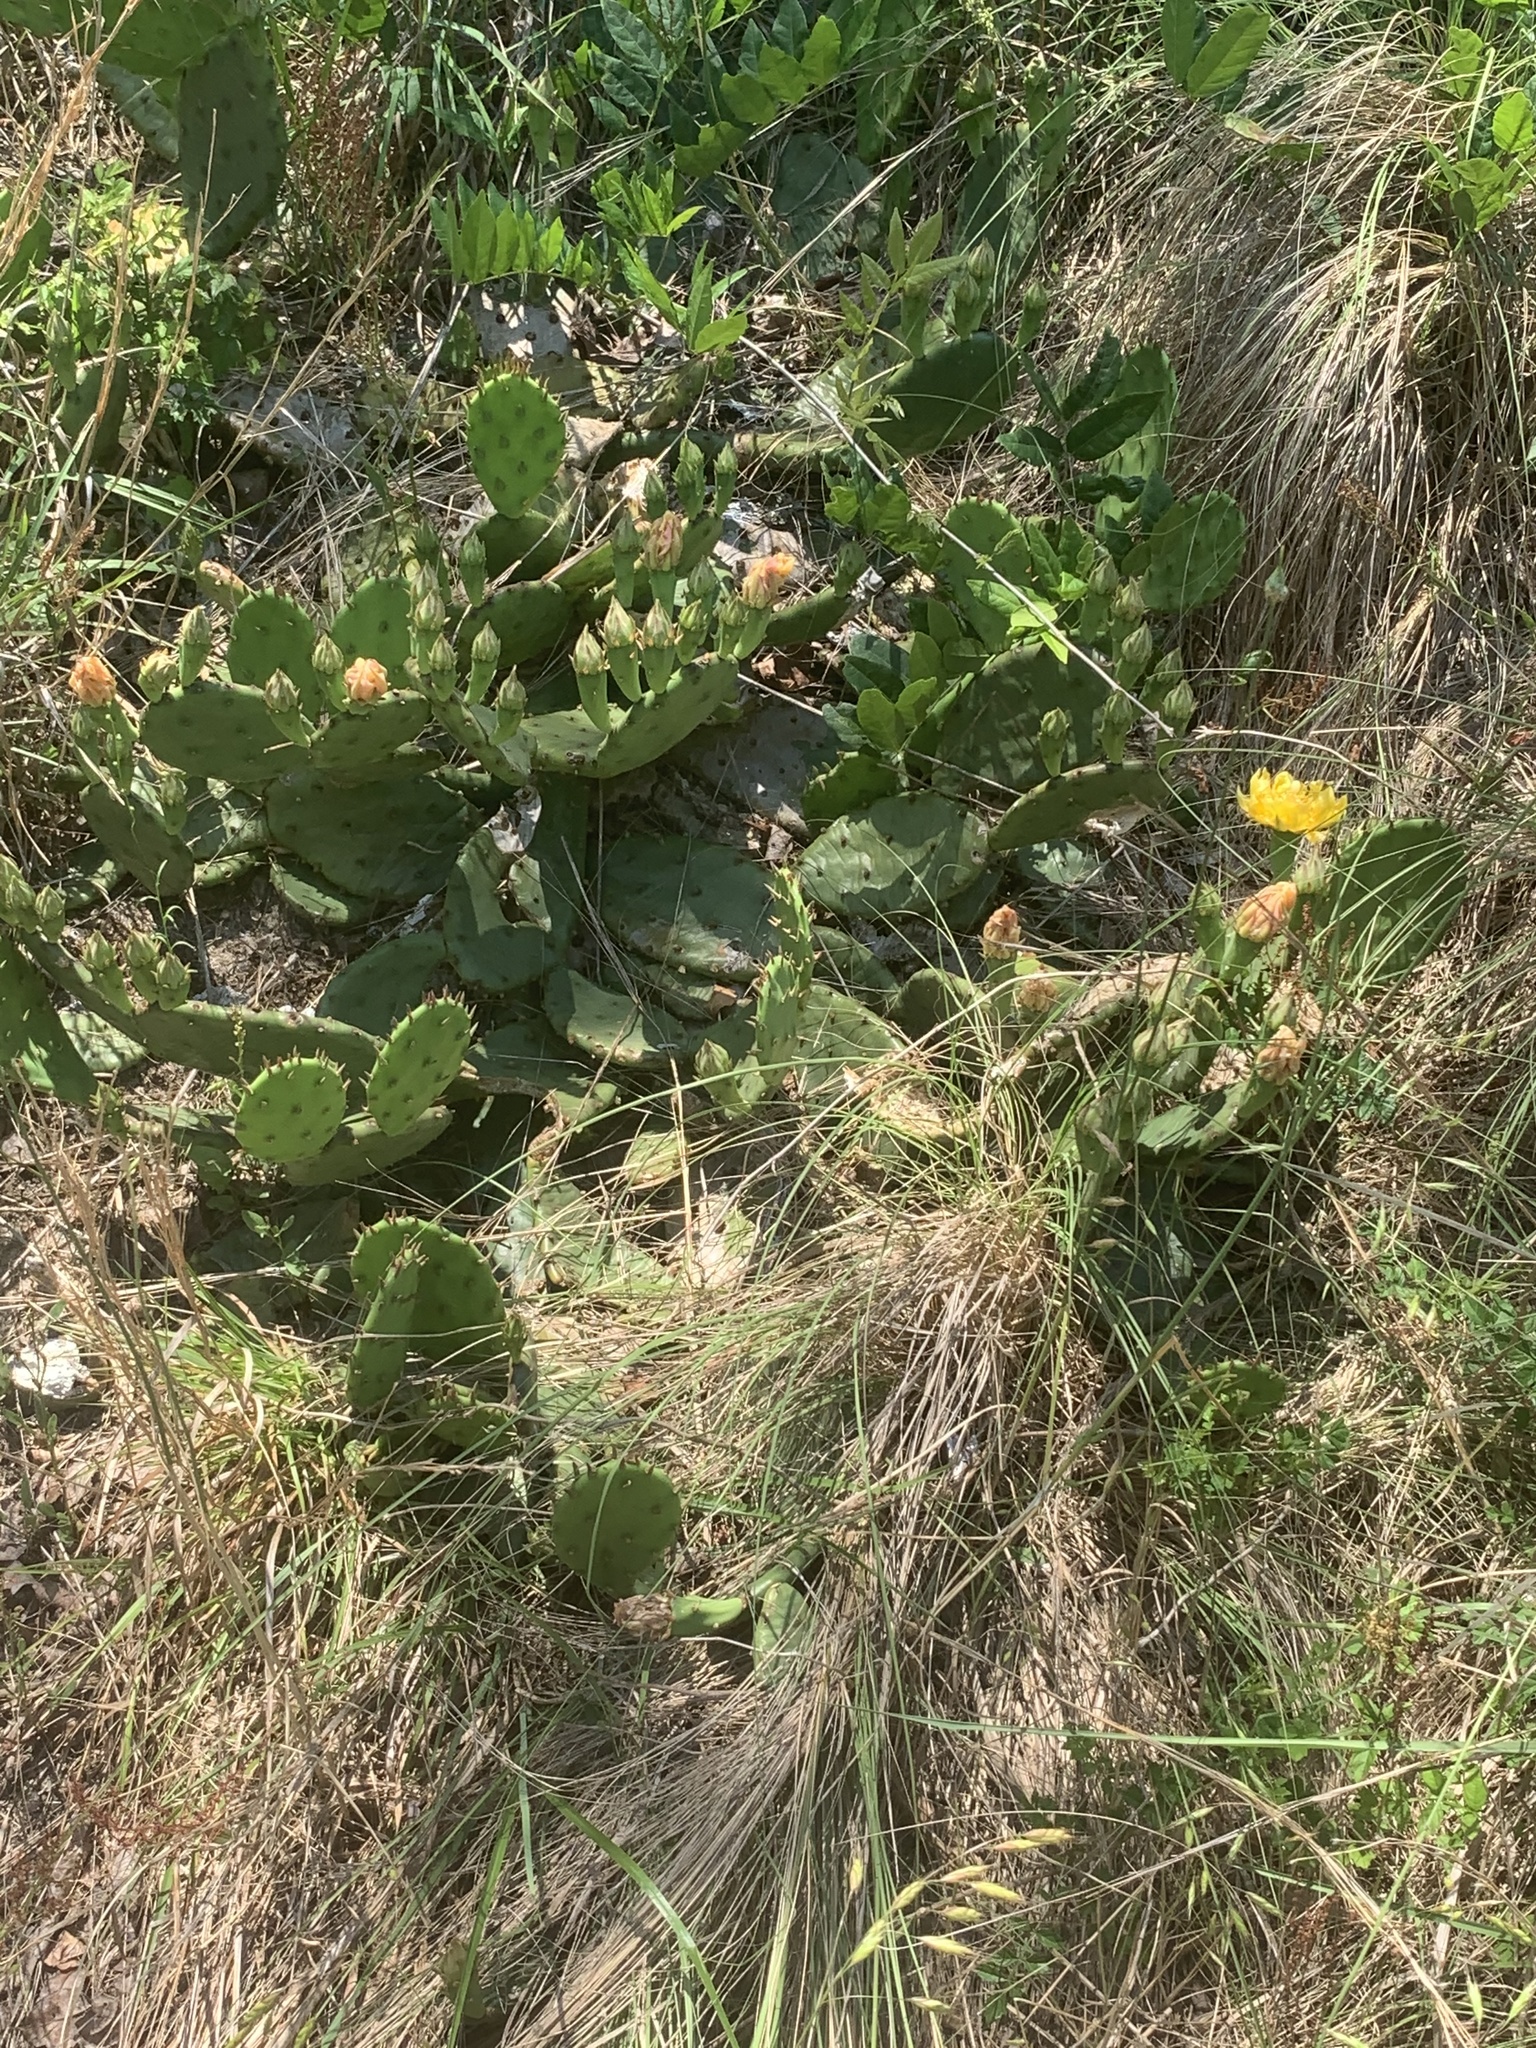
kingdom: Plantae
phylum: Tracheophyta
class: Magnoliopsida
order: Caryophyllales
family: Cactaceae
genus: Opuntia
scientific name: Opuntia humifusa
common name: Eastern prickly-pear
